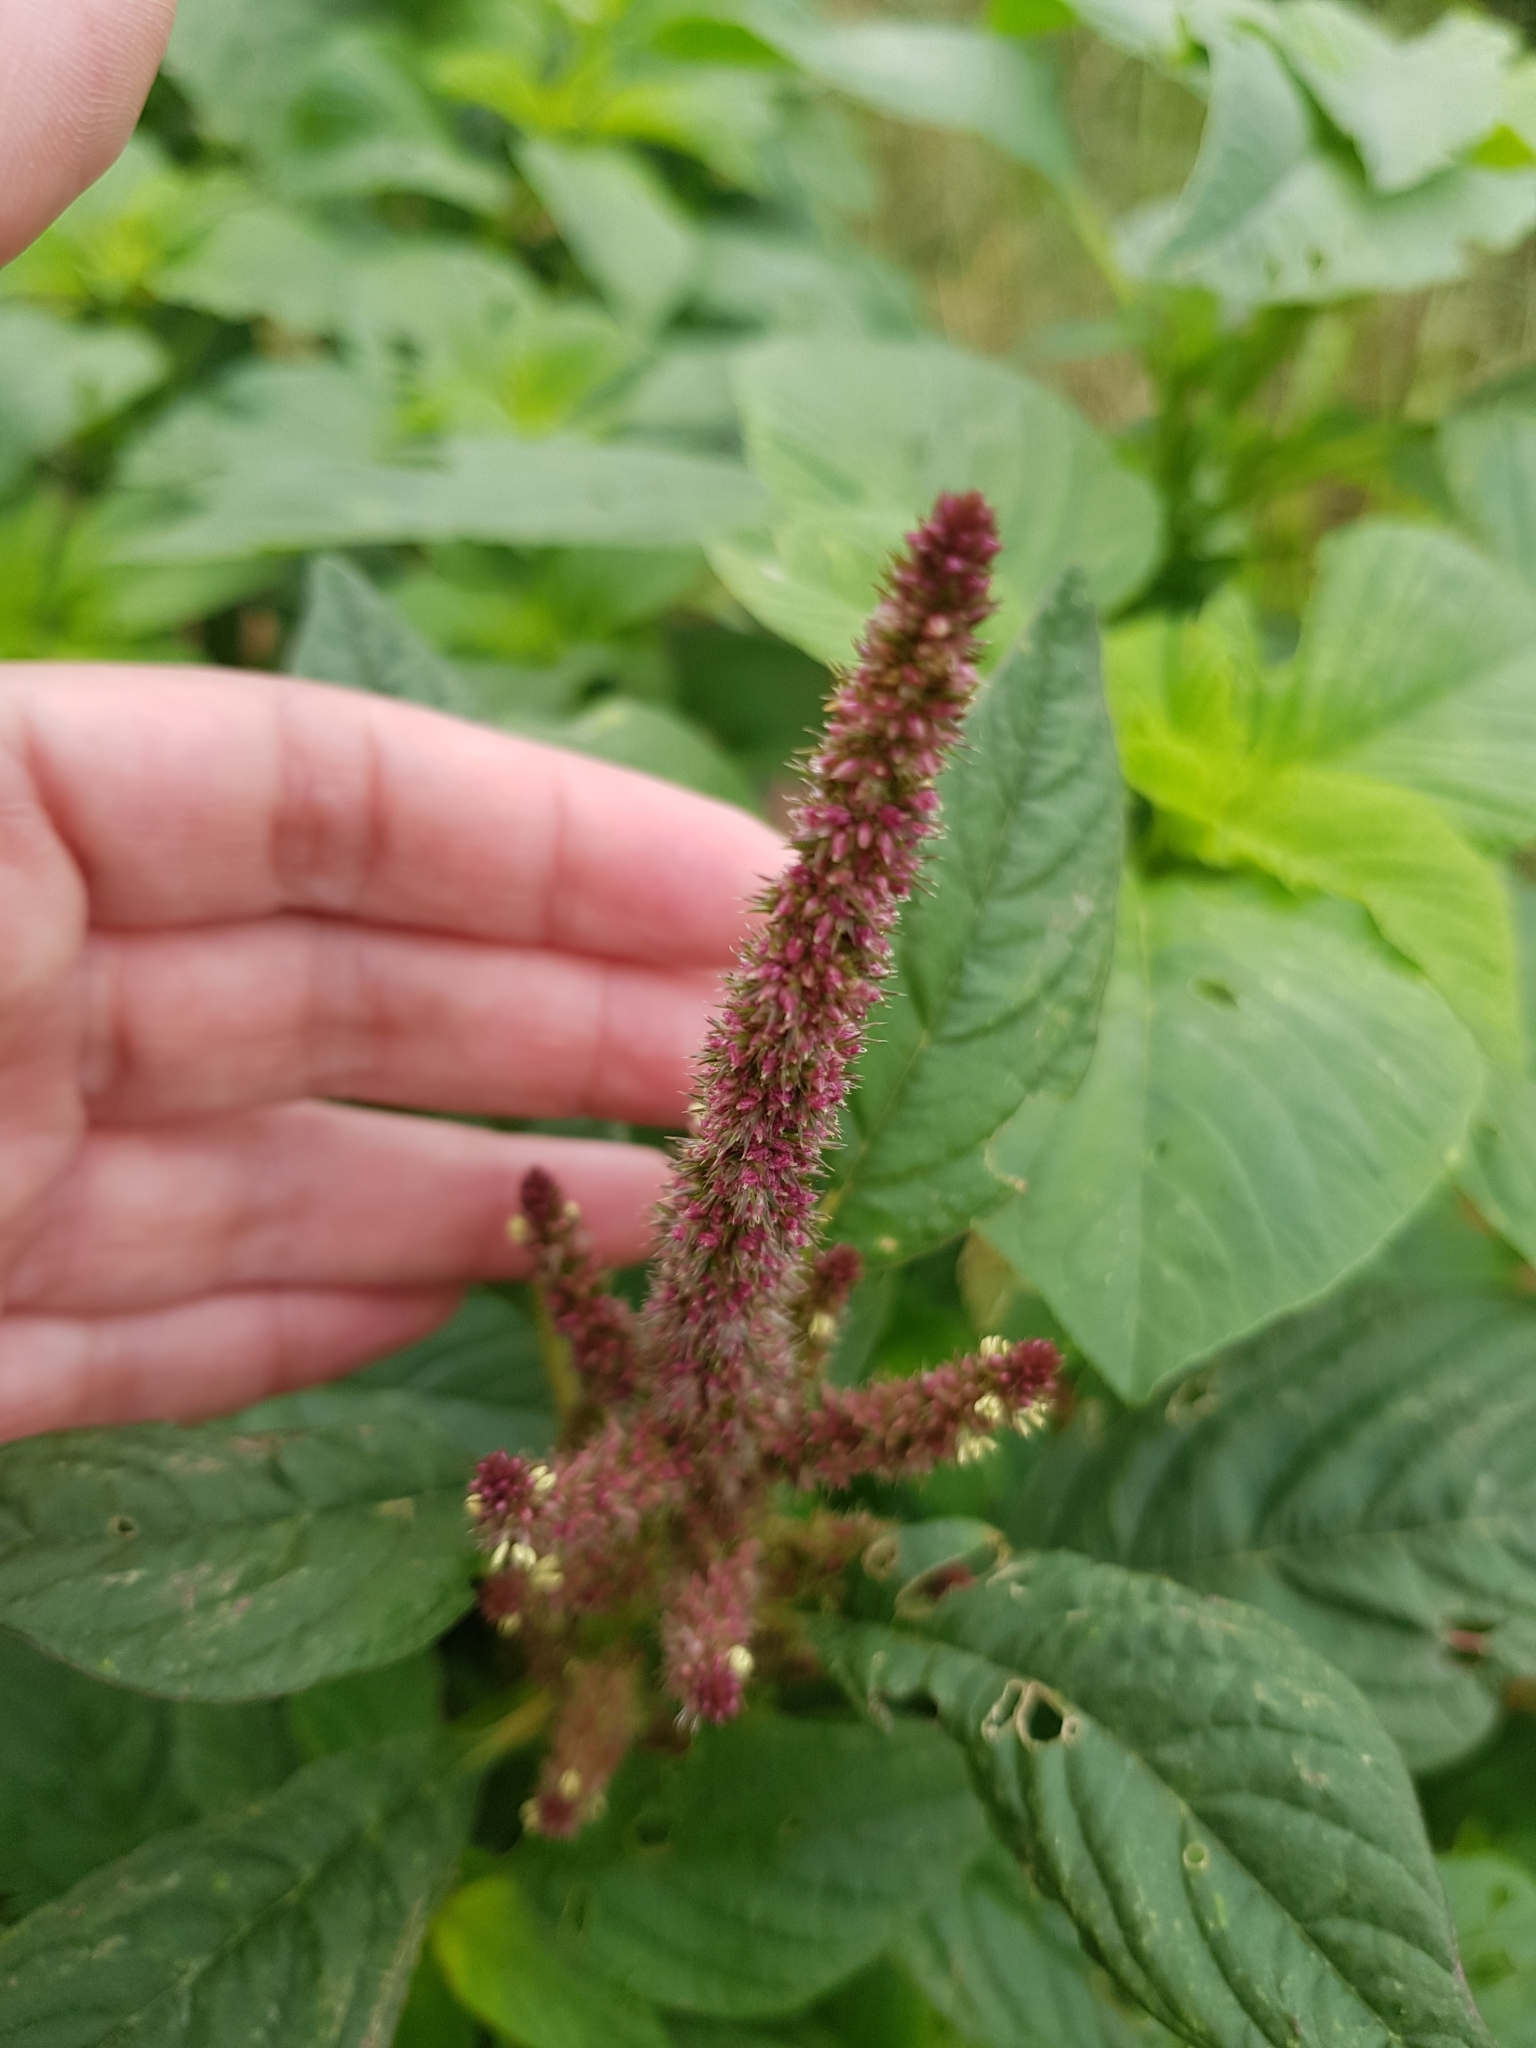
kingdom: Plantae
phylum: Tracheophyta
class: Magnoliopsida
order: Caryophyllales
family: Amaranthaceae
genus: Amaranthus
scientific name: Amaranthus hybridus
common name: Green amaranth
